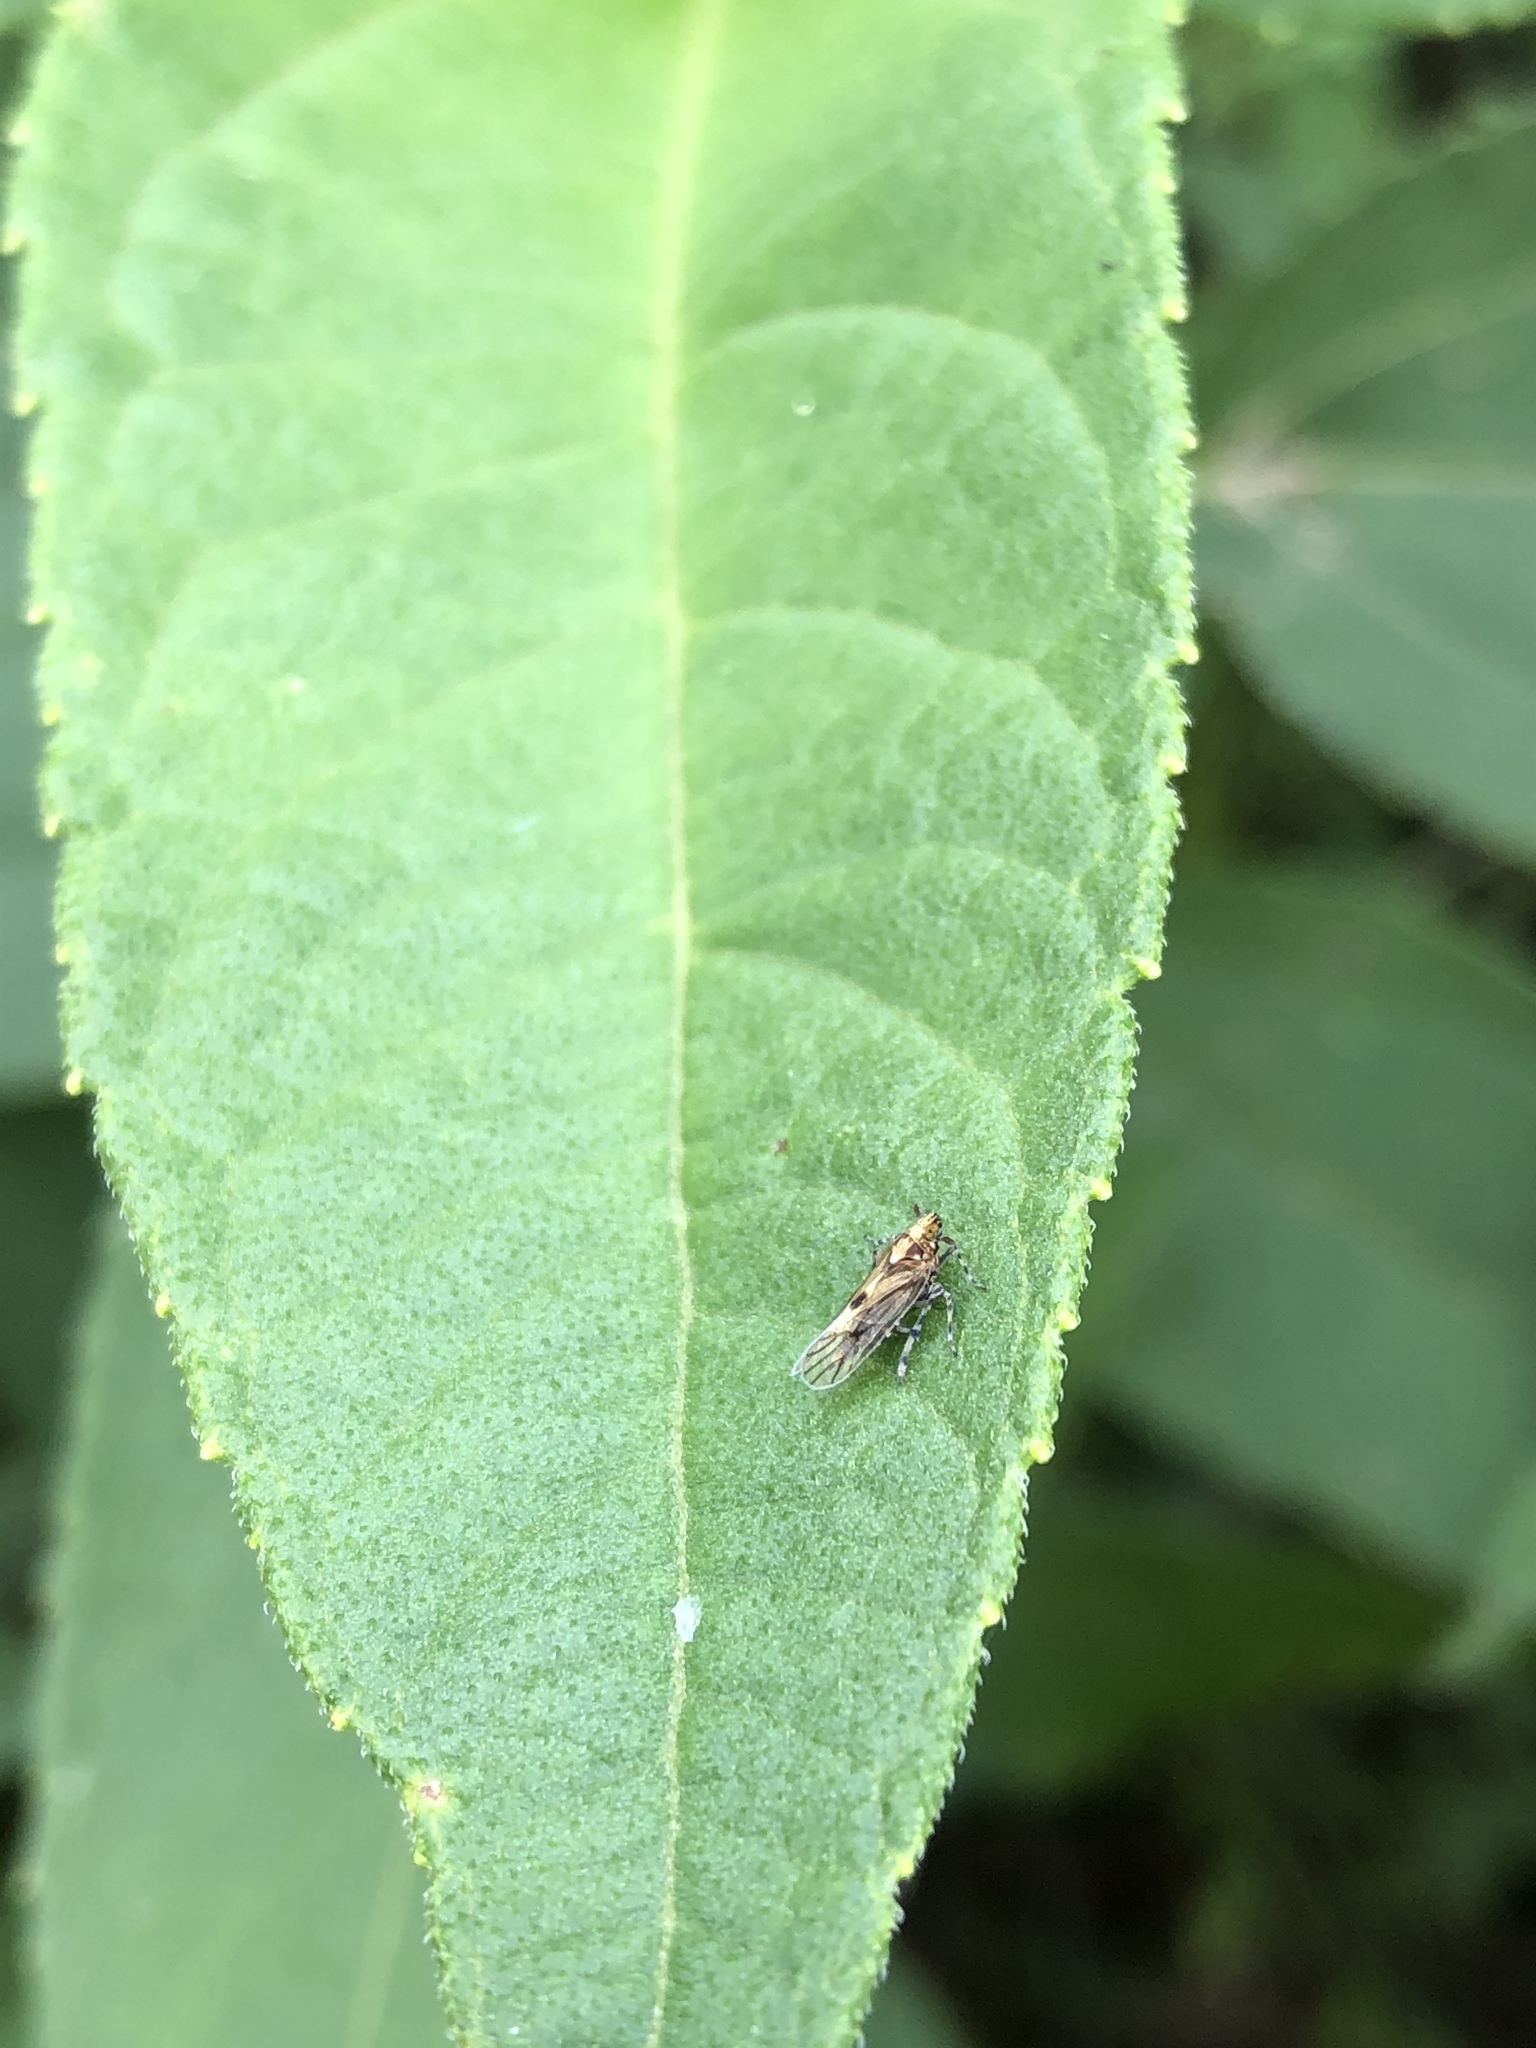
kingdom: Animalia
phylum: Arthropoda
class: Insecta
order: Hemiptera
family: Delphacidae
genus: Megamelus
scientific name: Megamelus palaetus
